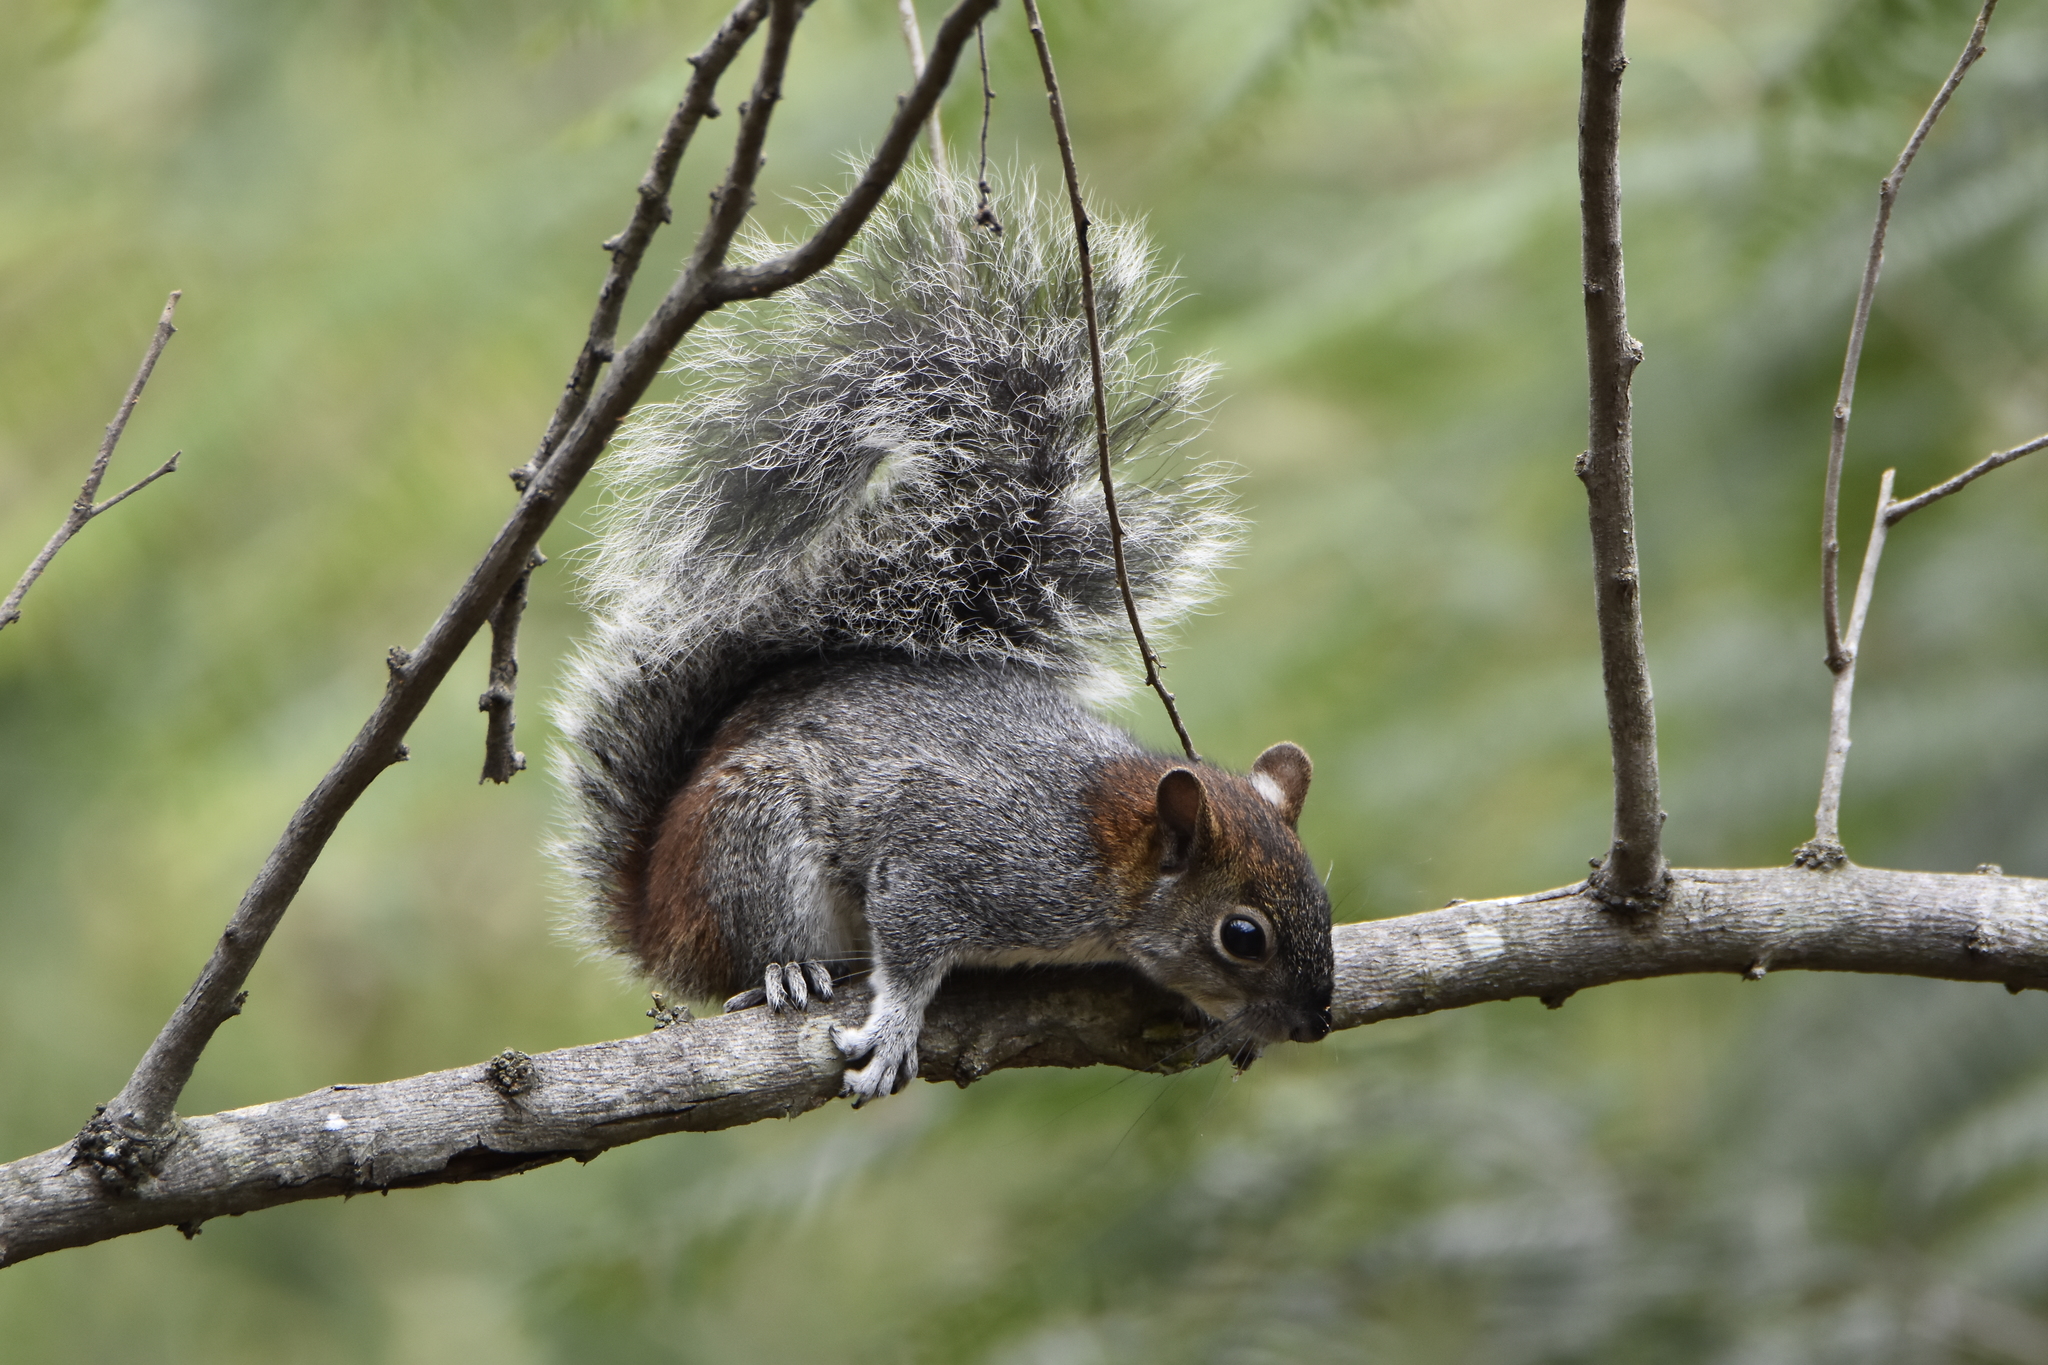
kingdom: Animalia
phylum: Chordata
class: Mammalia
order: Rodentia
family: Sciuridae
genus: Sciurus
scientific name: Sciurus aureogaster
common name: Red-bellied squirrel
